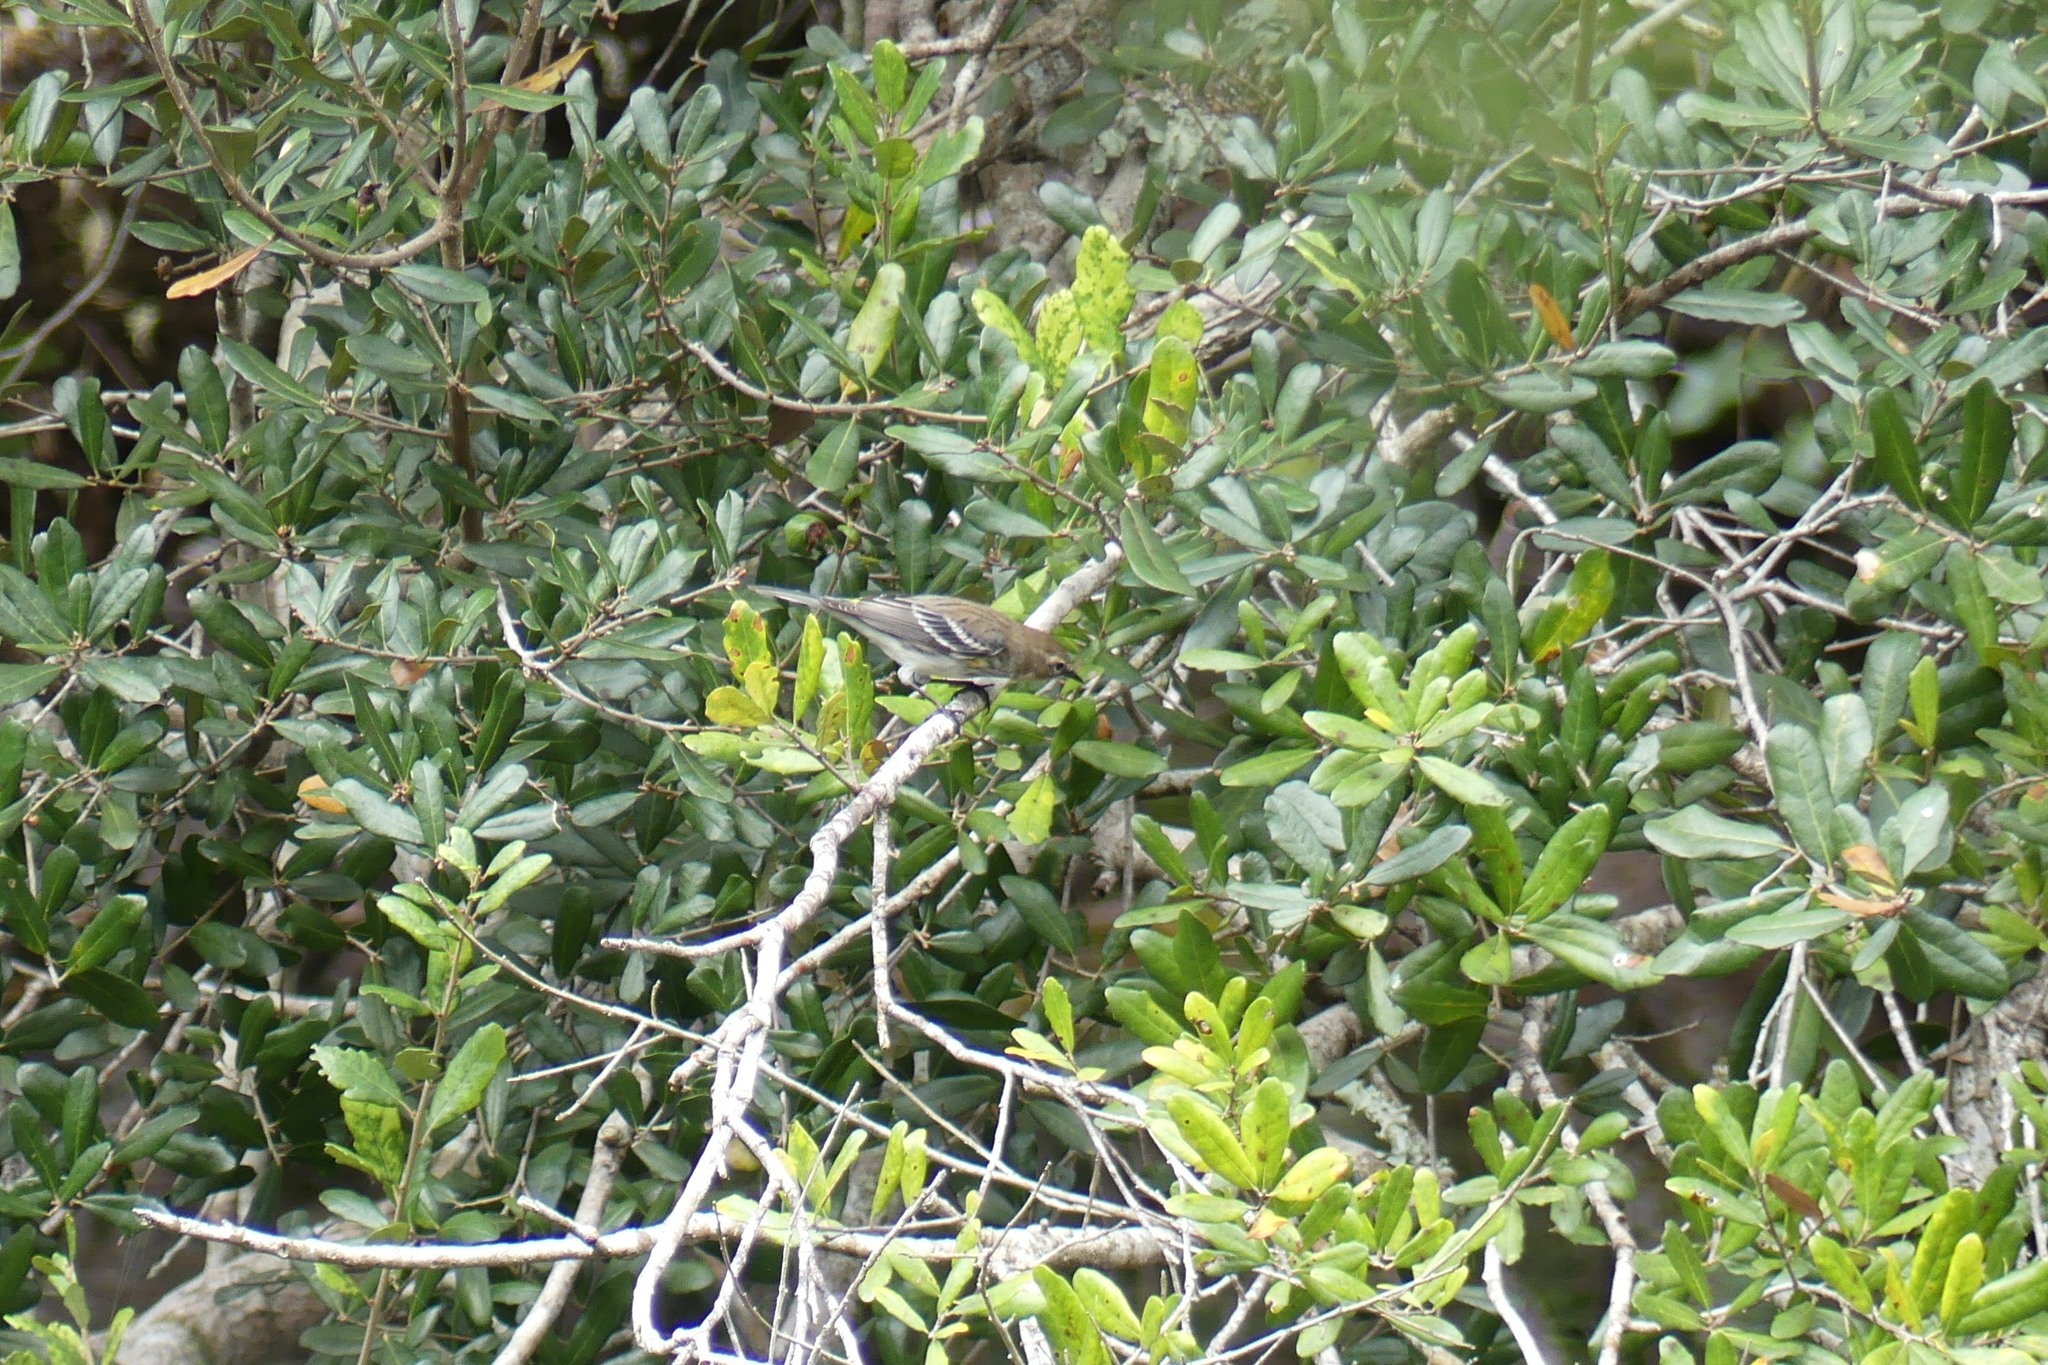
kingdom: Animalia
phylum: Chordata
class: Aves
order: Passeriformes
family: Parulidae
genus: Setophaga
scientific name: Setophaga coronata
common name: Myrtle warbler
